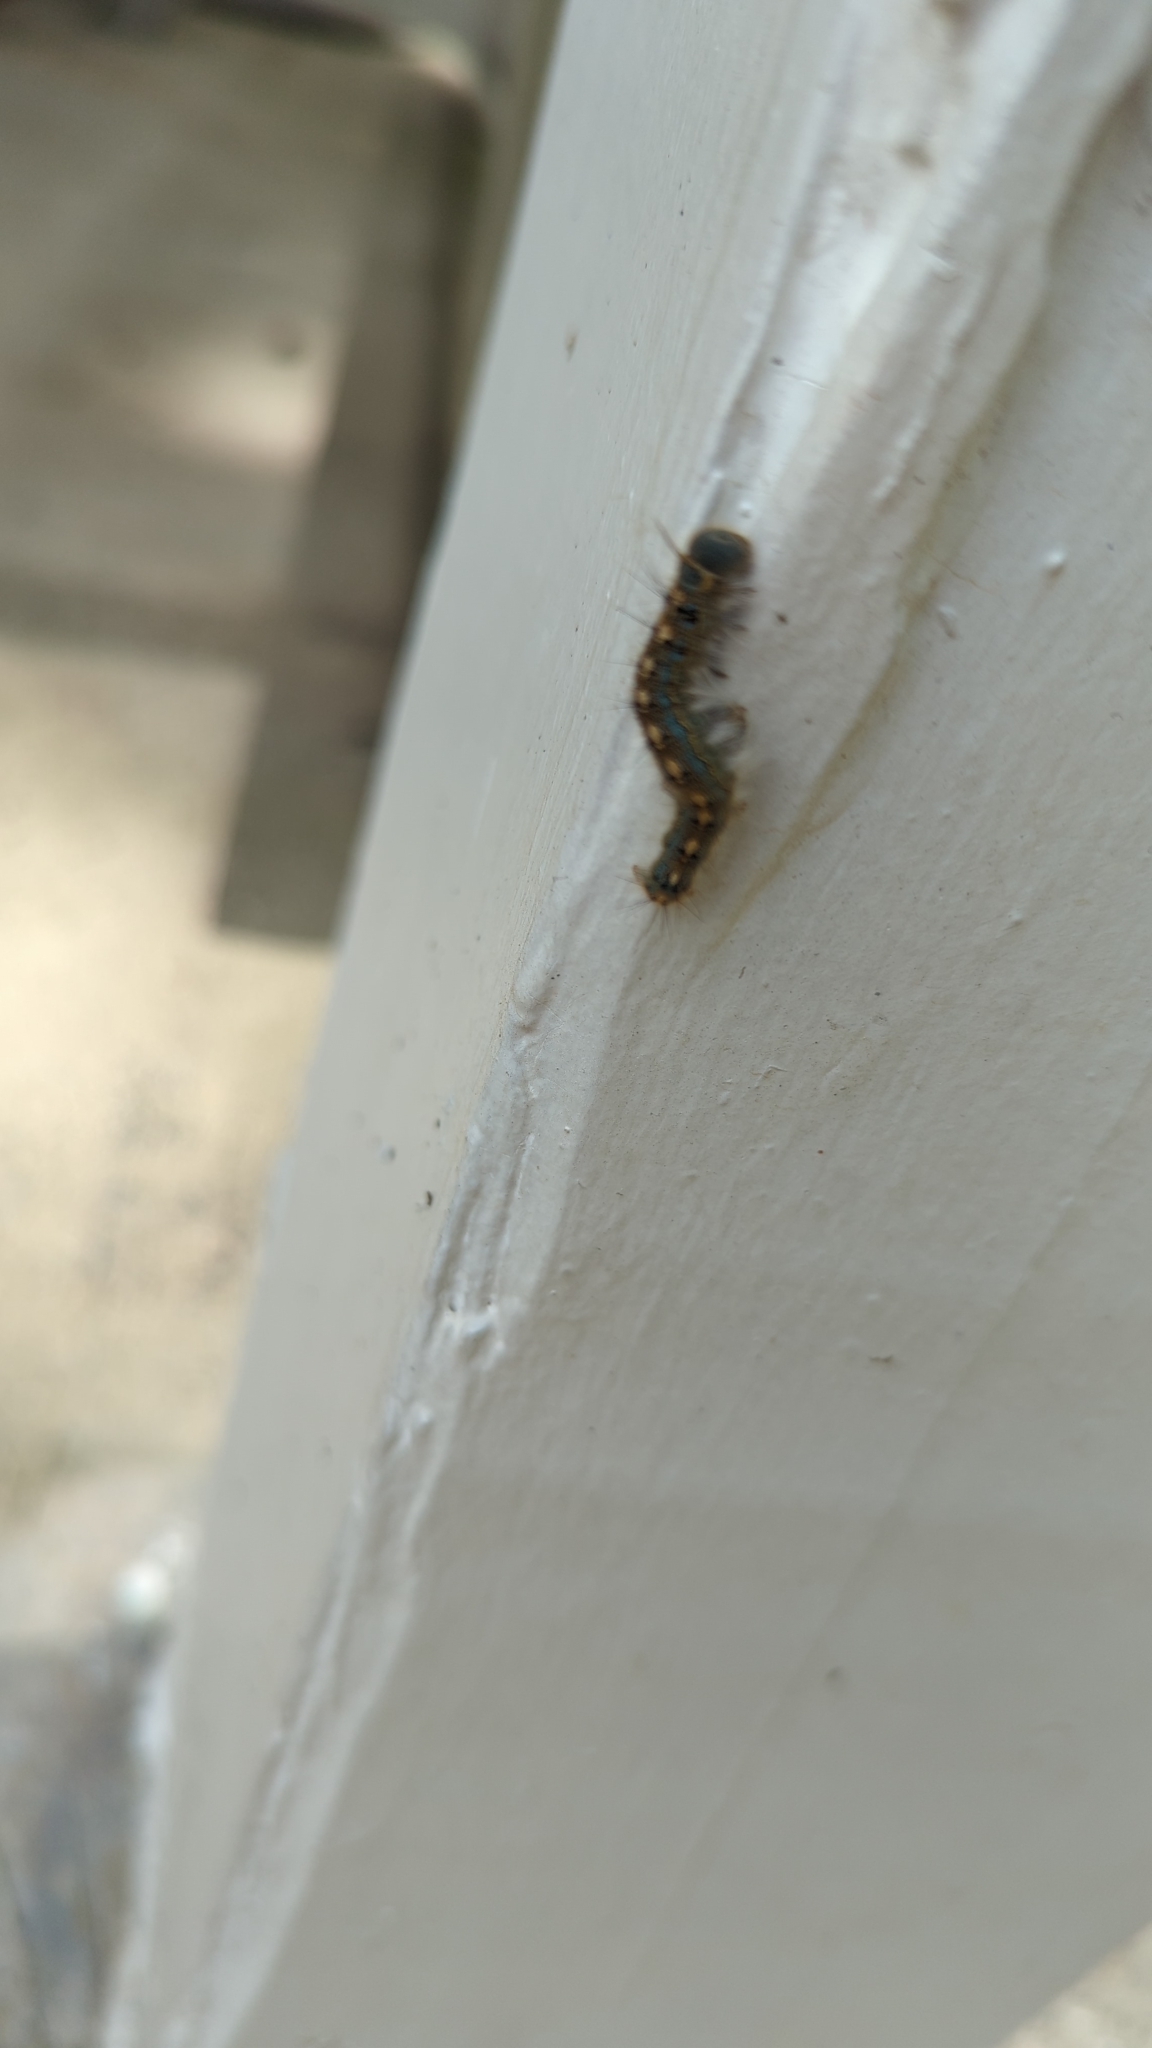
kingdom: Animalia
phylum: Arthropoda
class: Insecta
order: Lepidoptera
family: Lasiocampidae
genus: Malacosoma
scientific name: Malacosoma disstria
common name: Forest tent caterpillar
